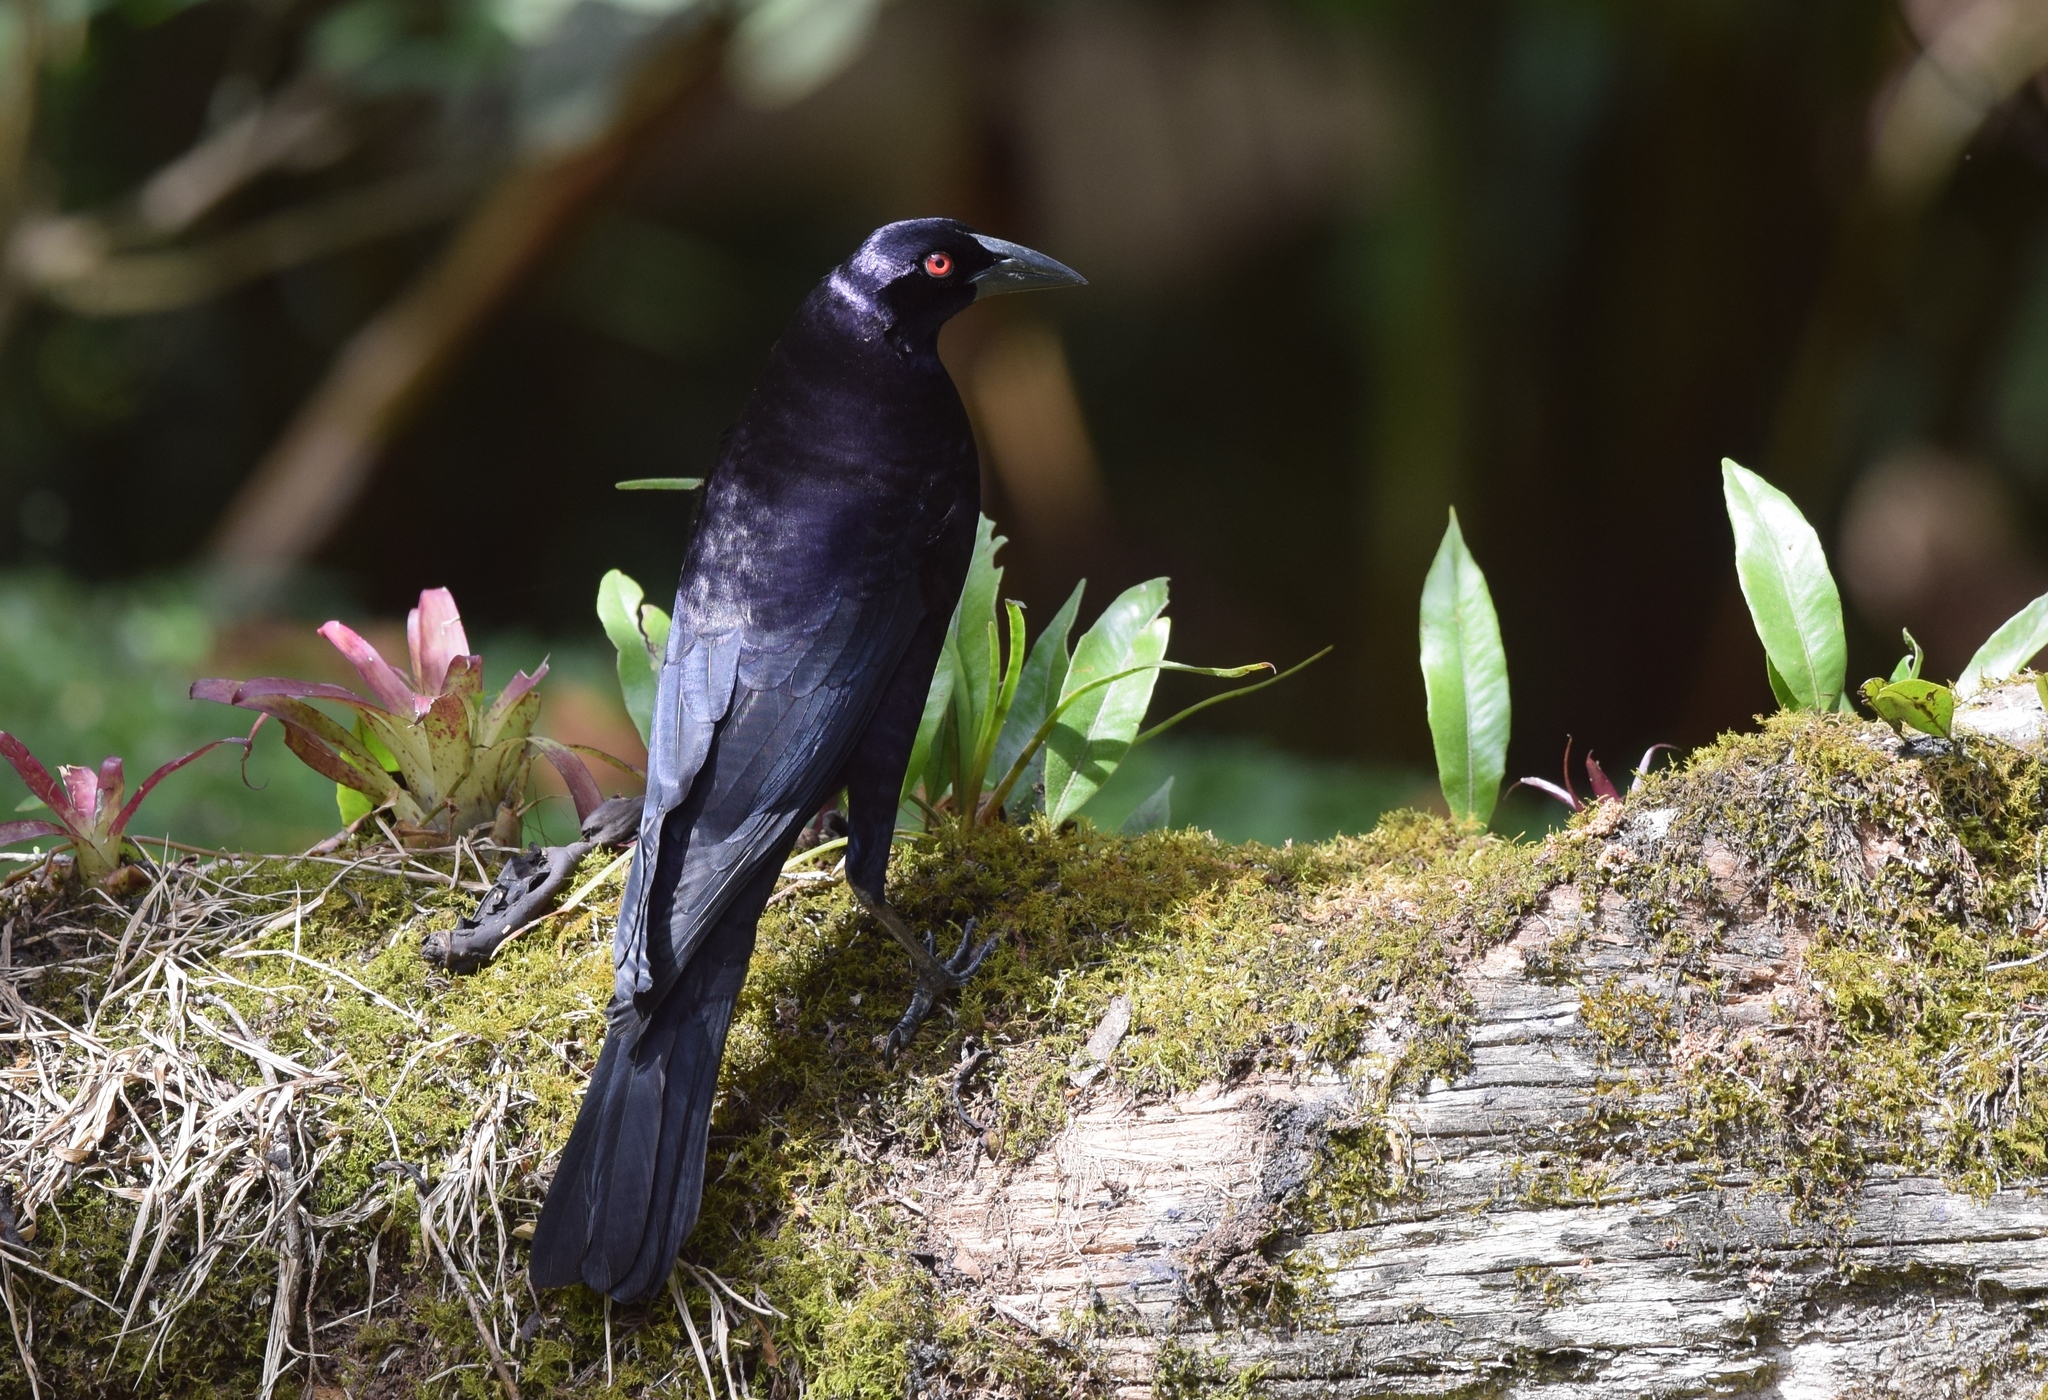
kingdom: Animalia
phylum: Chordata
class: Aves
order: Passeriformes
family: Icteridae
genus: Molothrus
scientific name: Molothrus oryzivorus
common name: Giant cowbird
